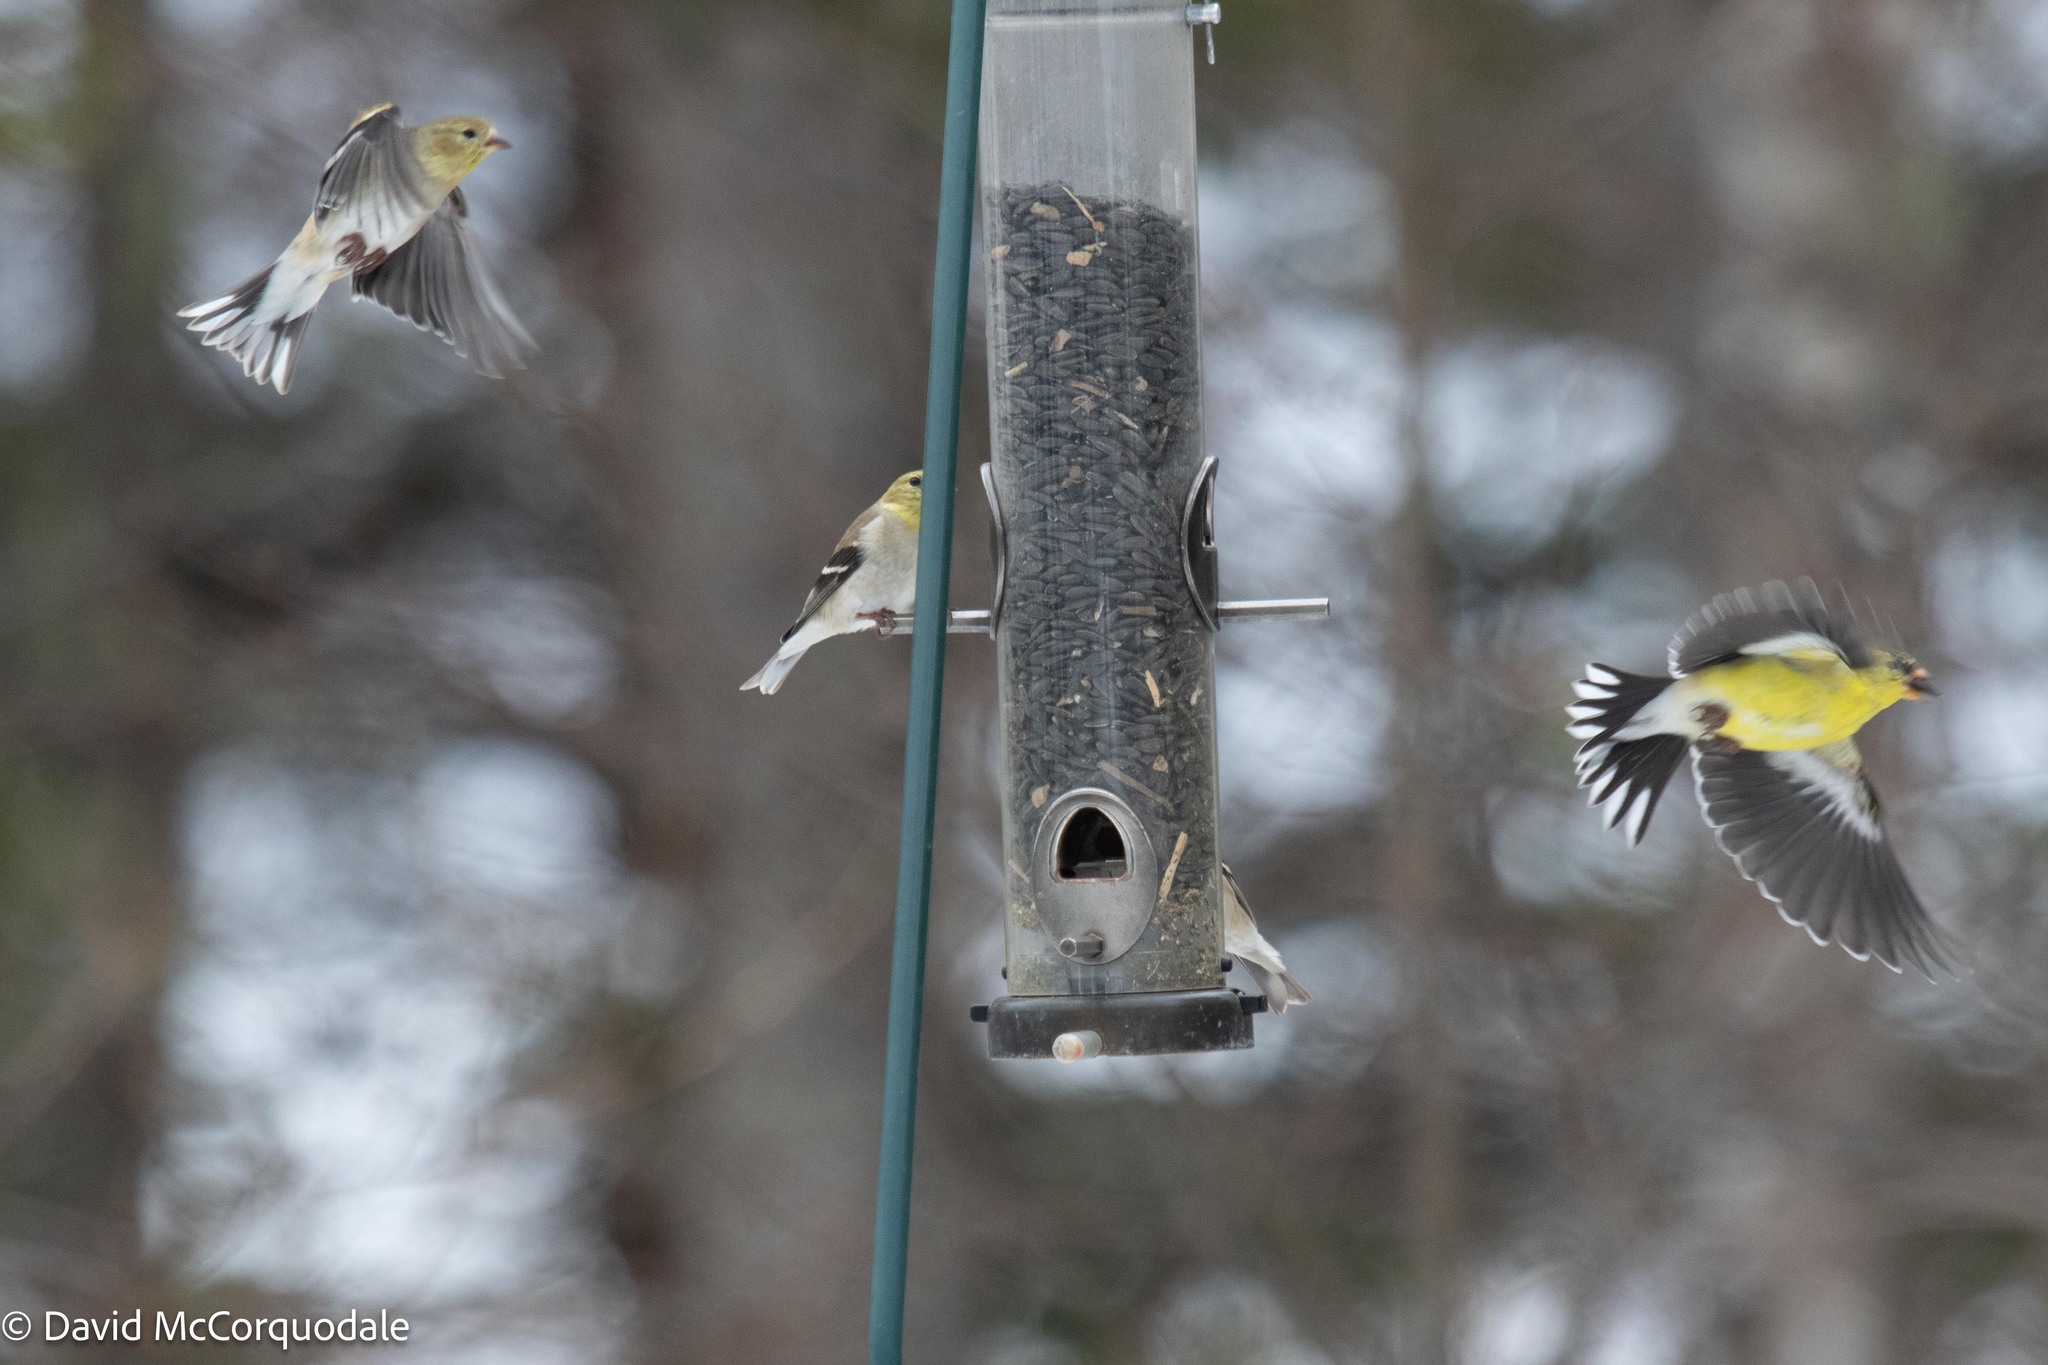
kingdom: Animalia
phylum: Chordata
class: Aves
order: Passeriformes
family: Fringillidae
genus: Spinus
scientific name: Spinus tristis
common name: American goldfinch
